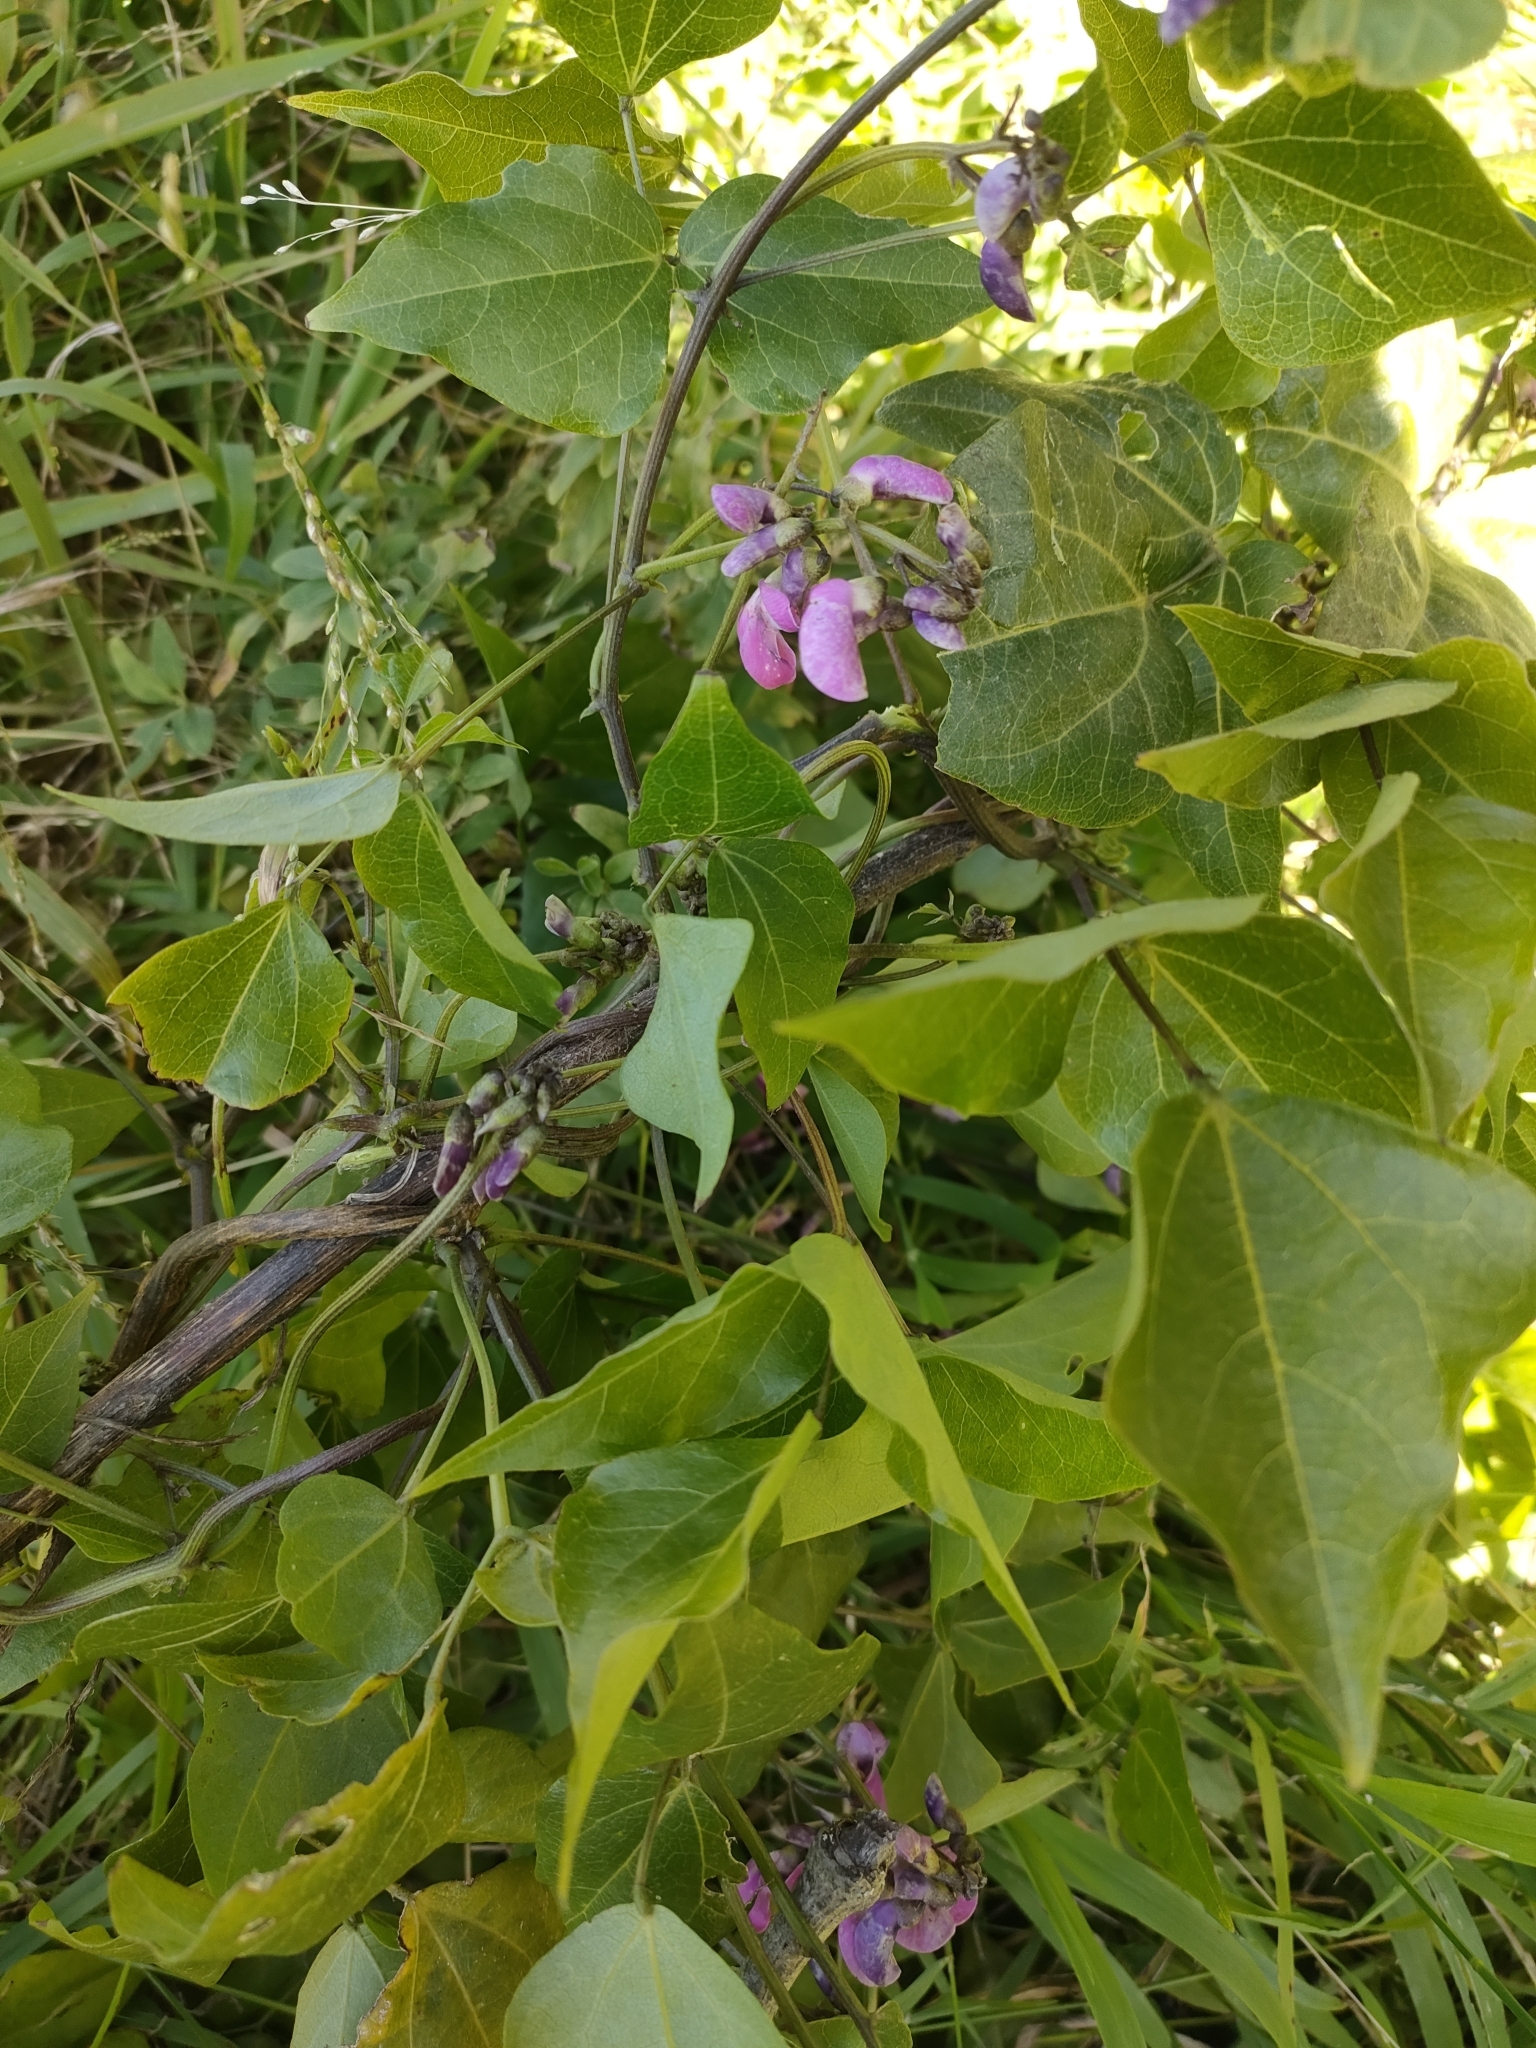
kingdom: Plantae
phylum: Tracheophyta
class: Magnoliopsida
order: Fabales
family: Fabaceae
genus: Dipogon
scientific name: Dipogon lignosus
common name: Okie bean
